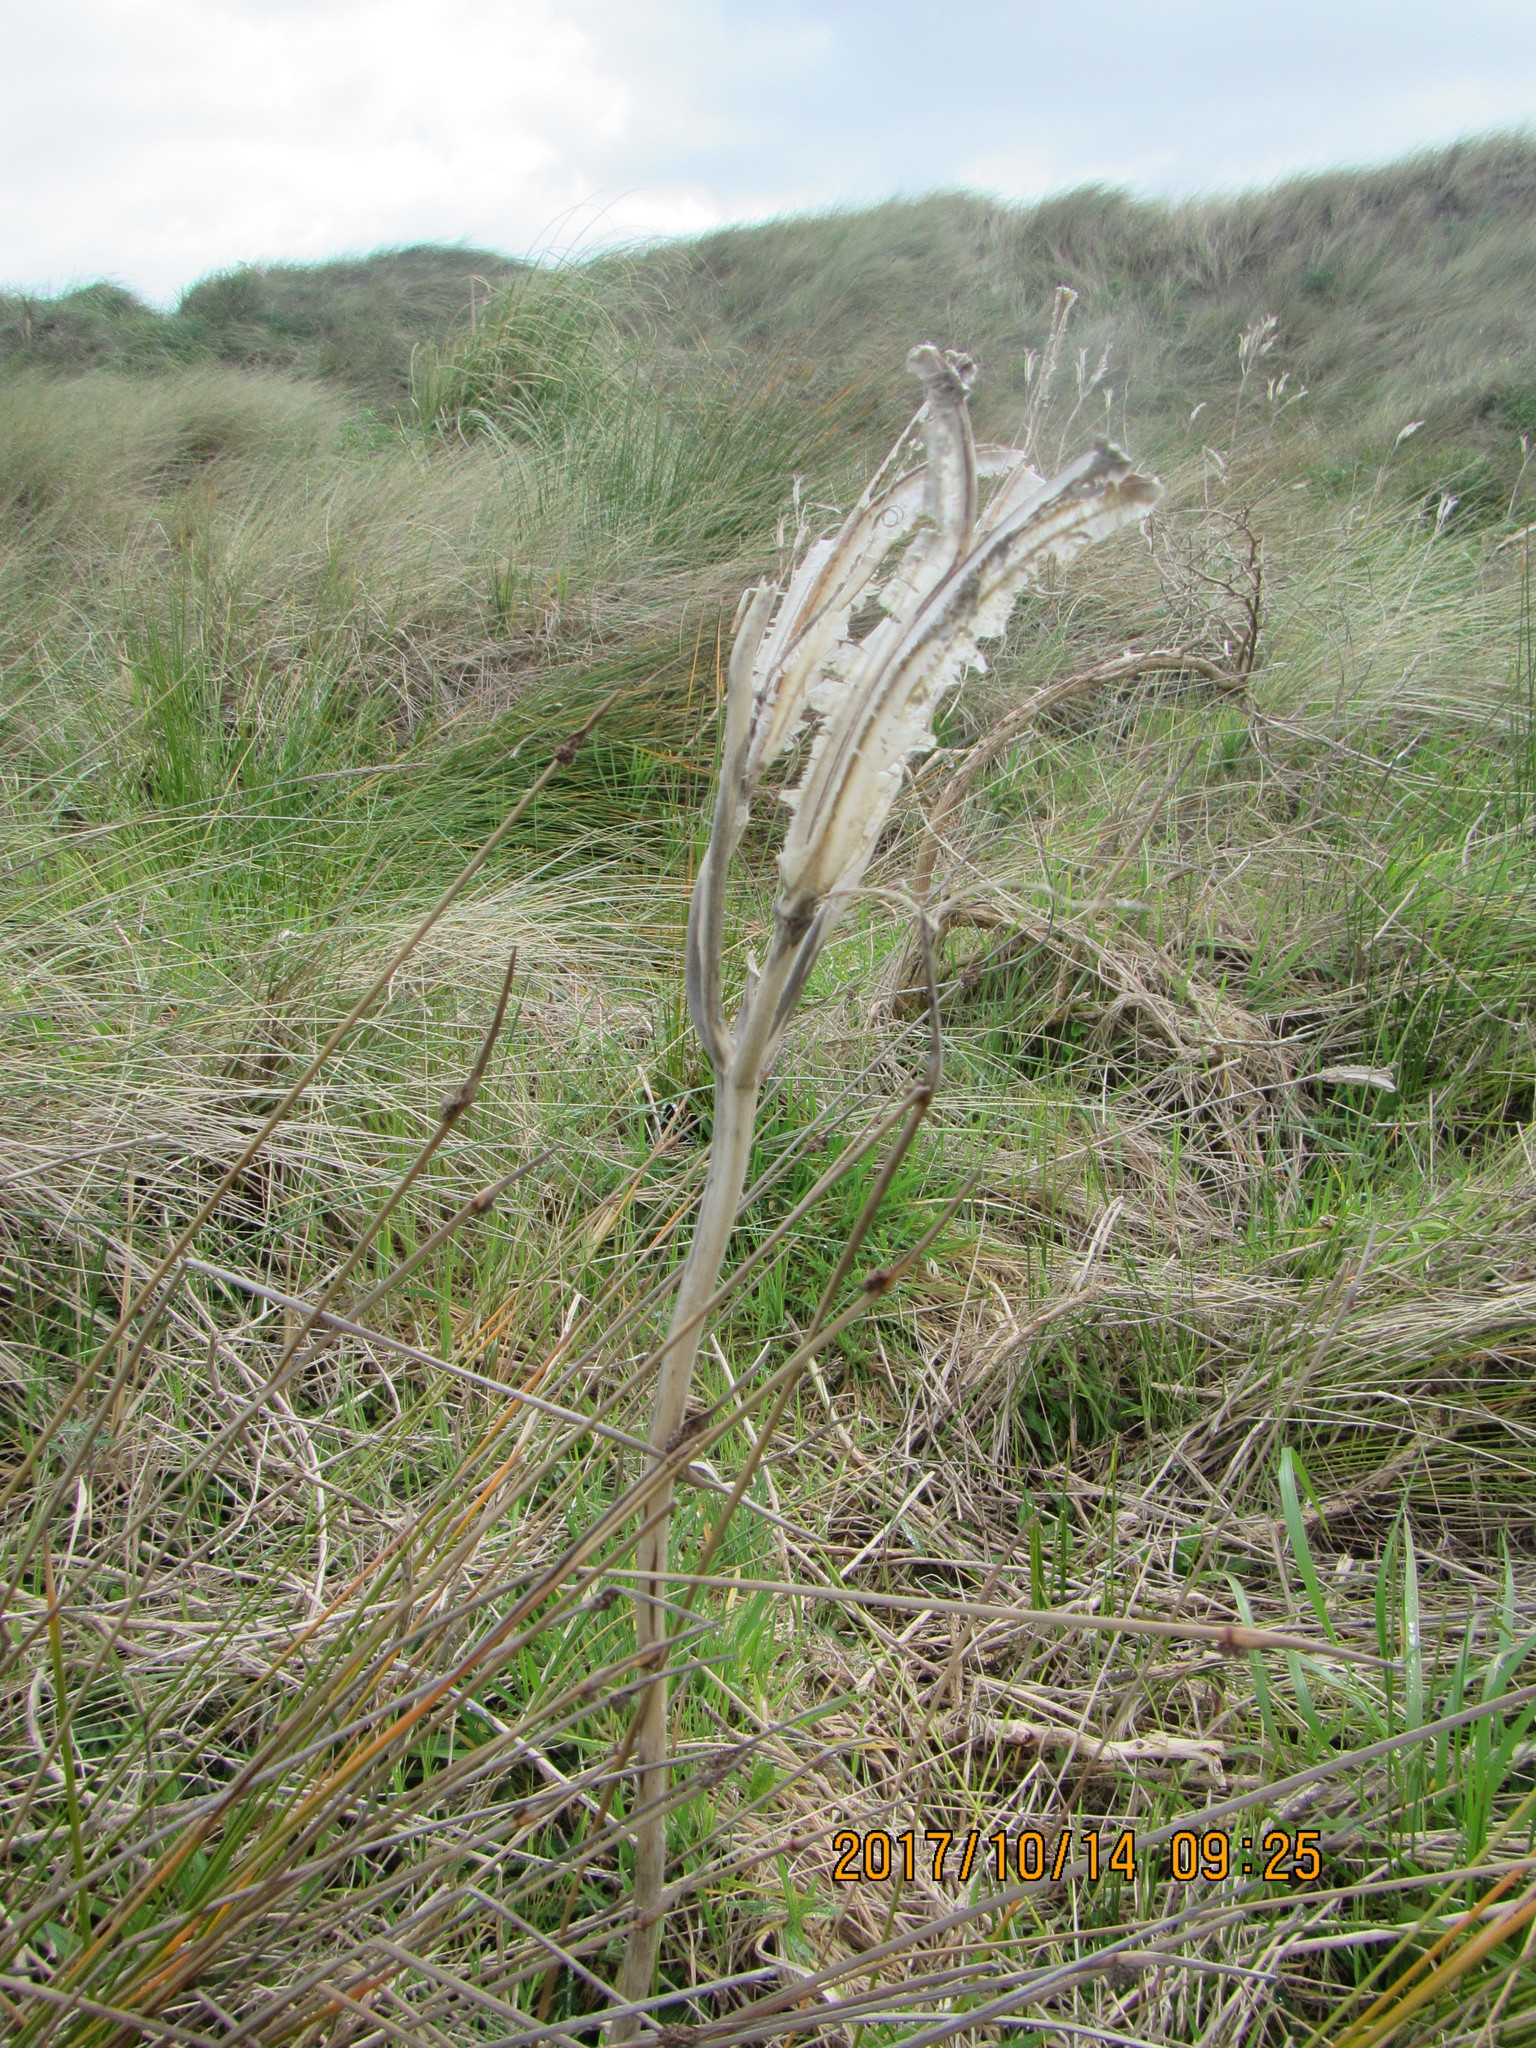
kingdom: Plantae
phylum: Tracheophyta
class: Liliopsida
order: Liliales
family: Liliaceae
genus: Lilium
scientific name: Lilium formosanum
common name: Formosa lily
